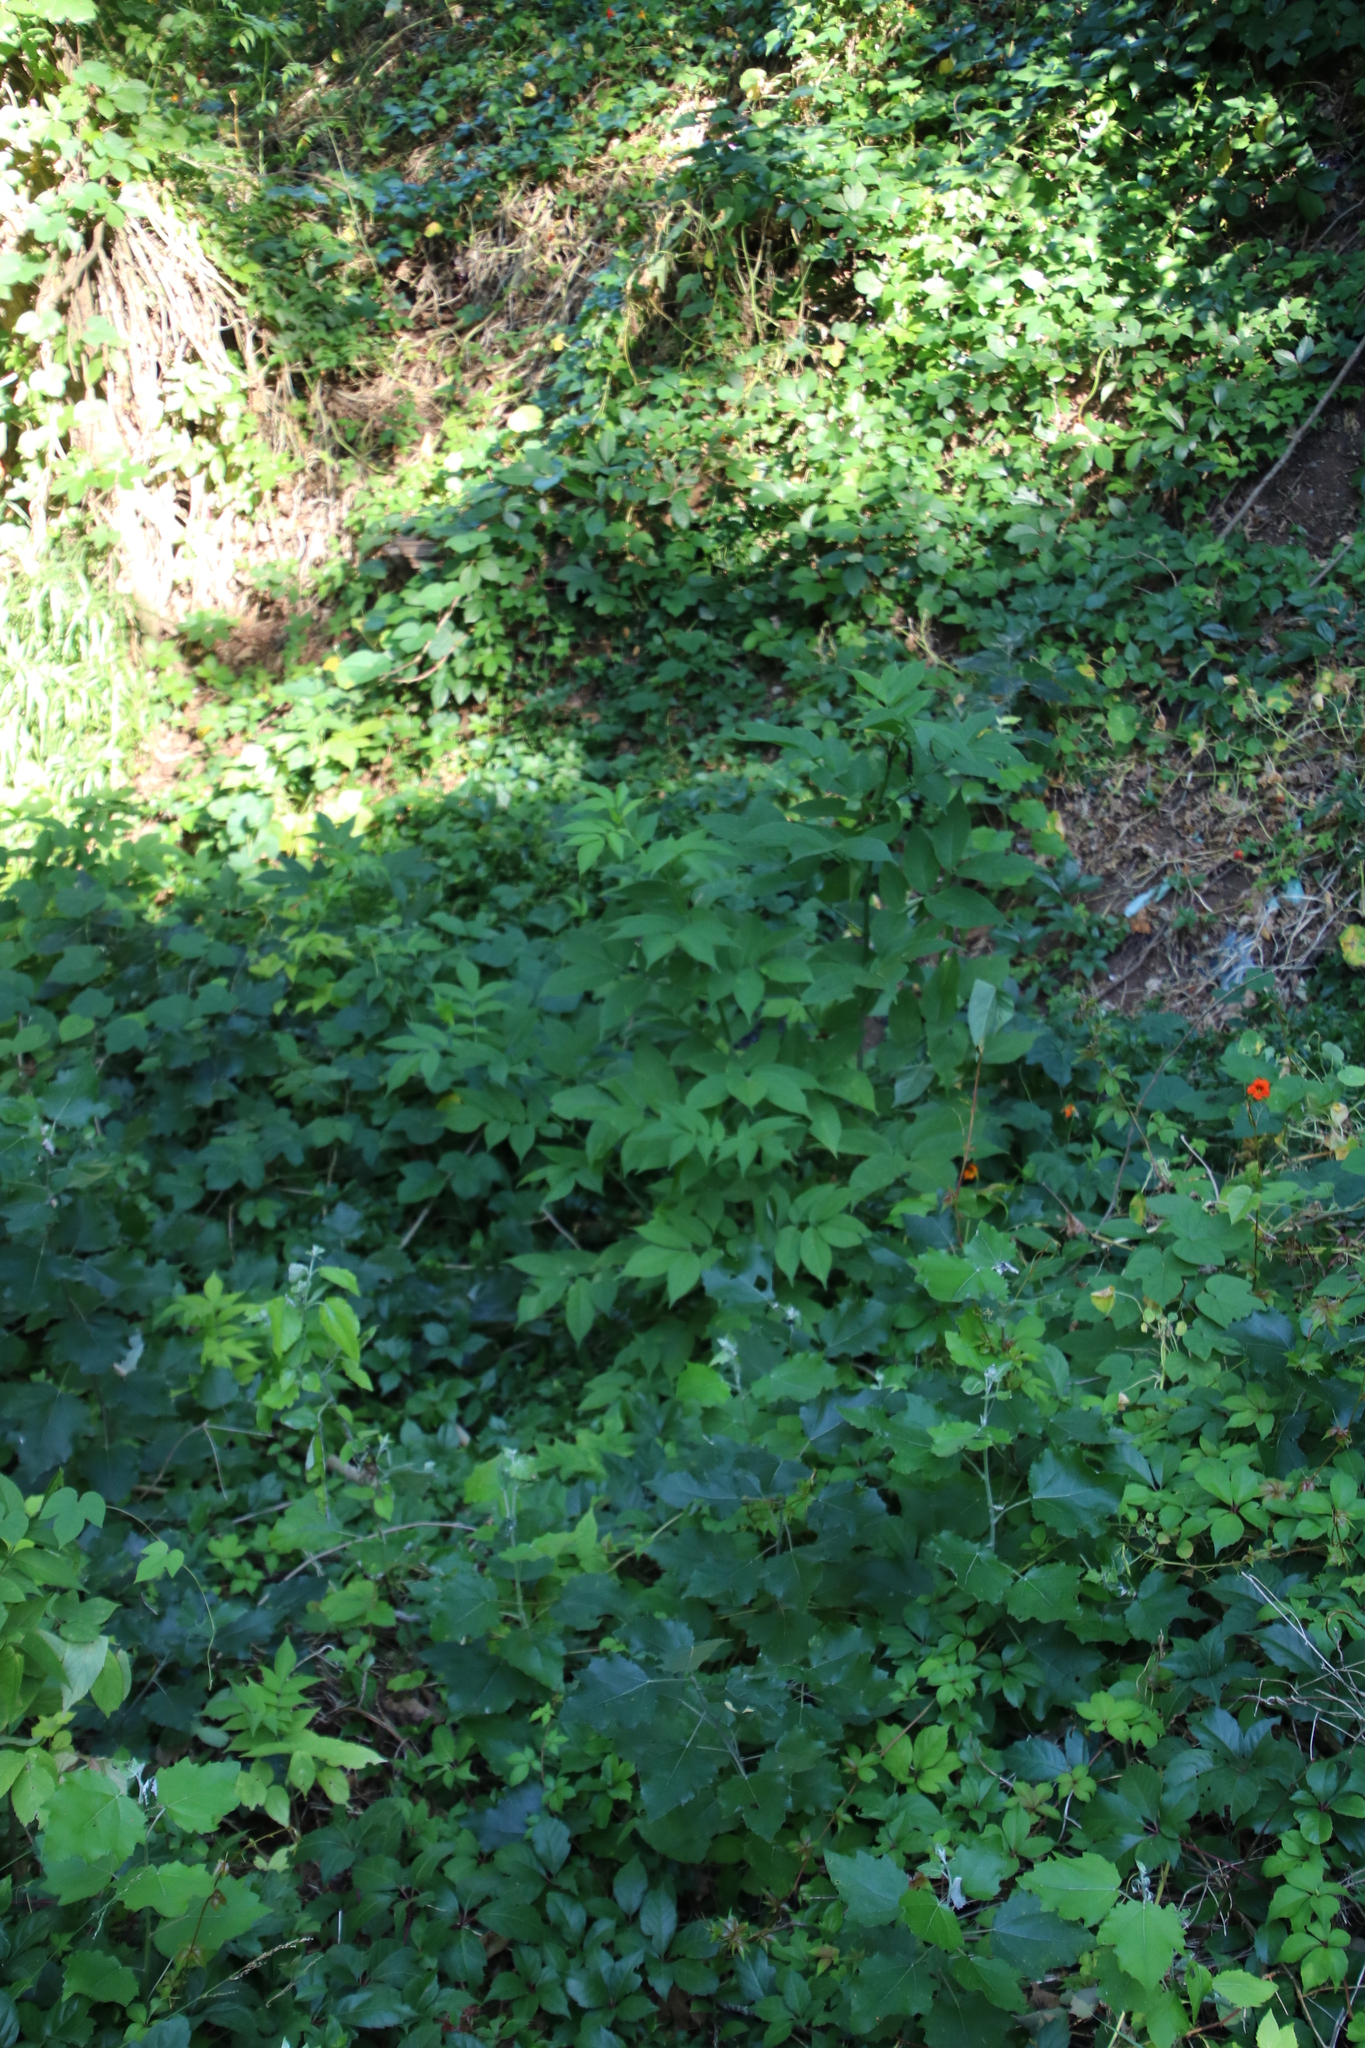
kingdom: Plantae
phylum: Tracheophyta
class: Magnoliopsida
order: Dipsacales
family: Viburnaceae
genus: Sambucus
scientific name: Sambucus canadensis
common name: American elder
